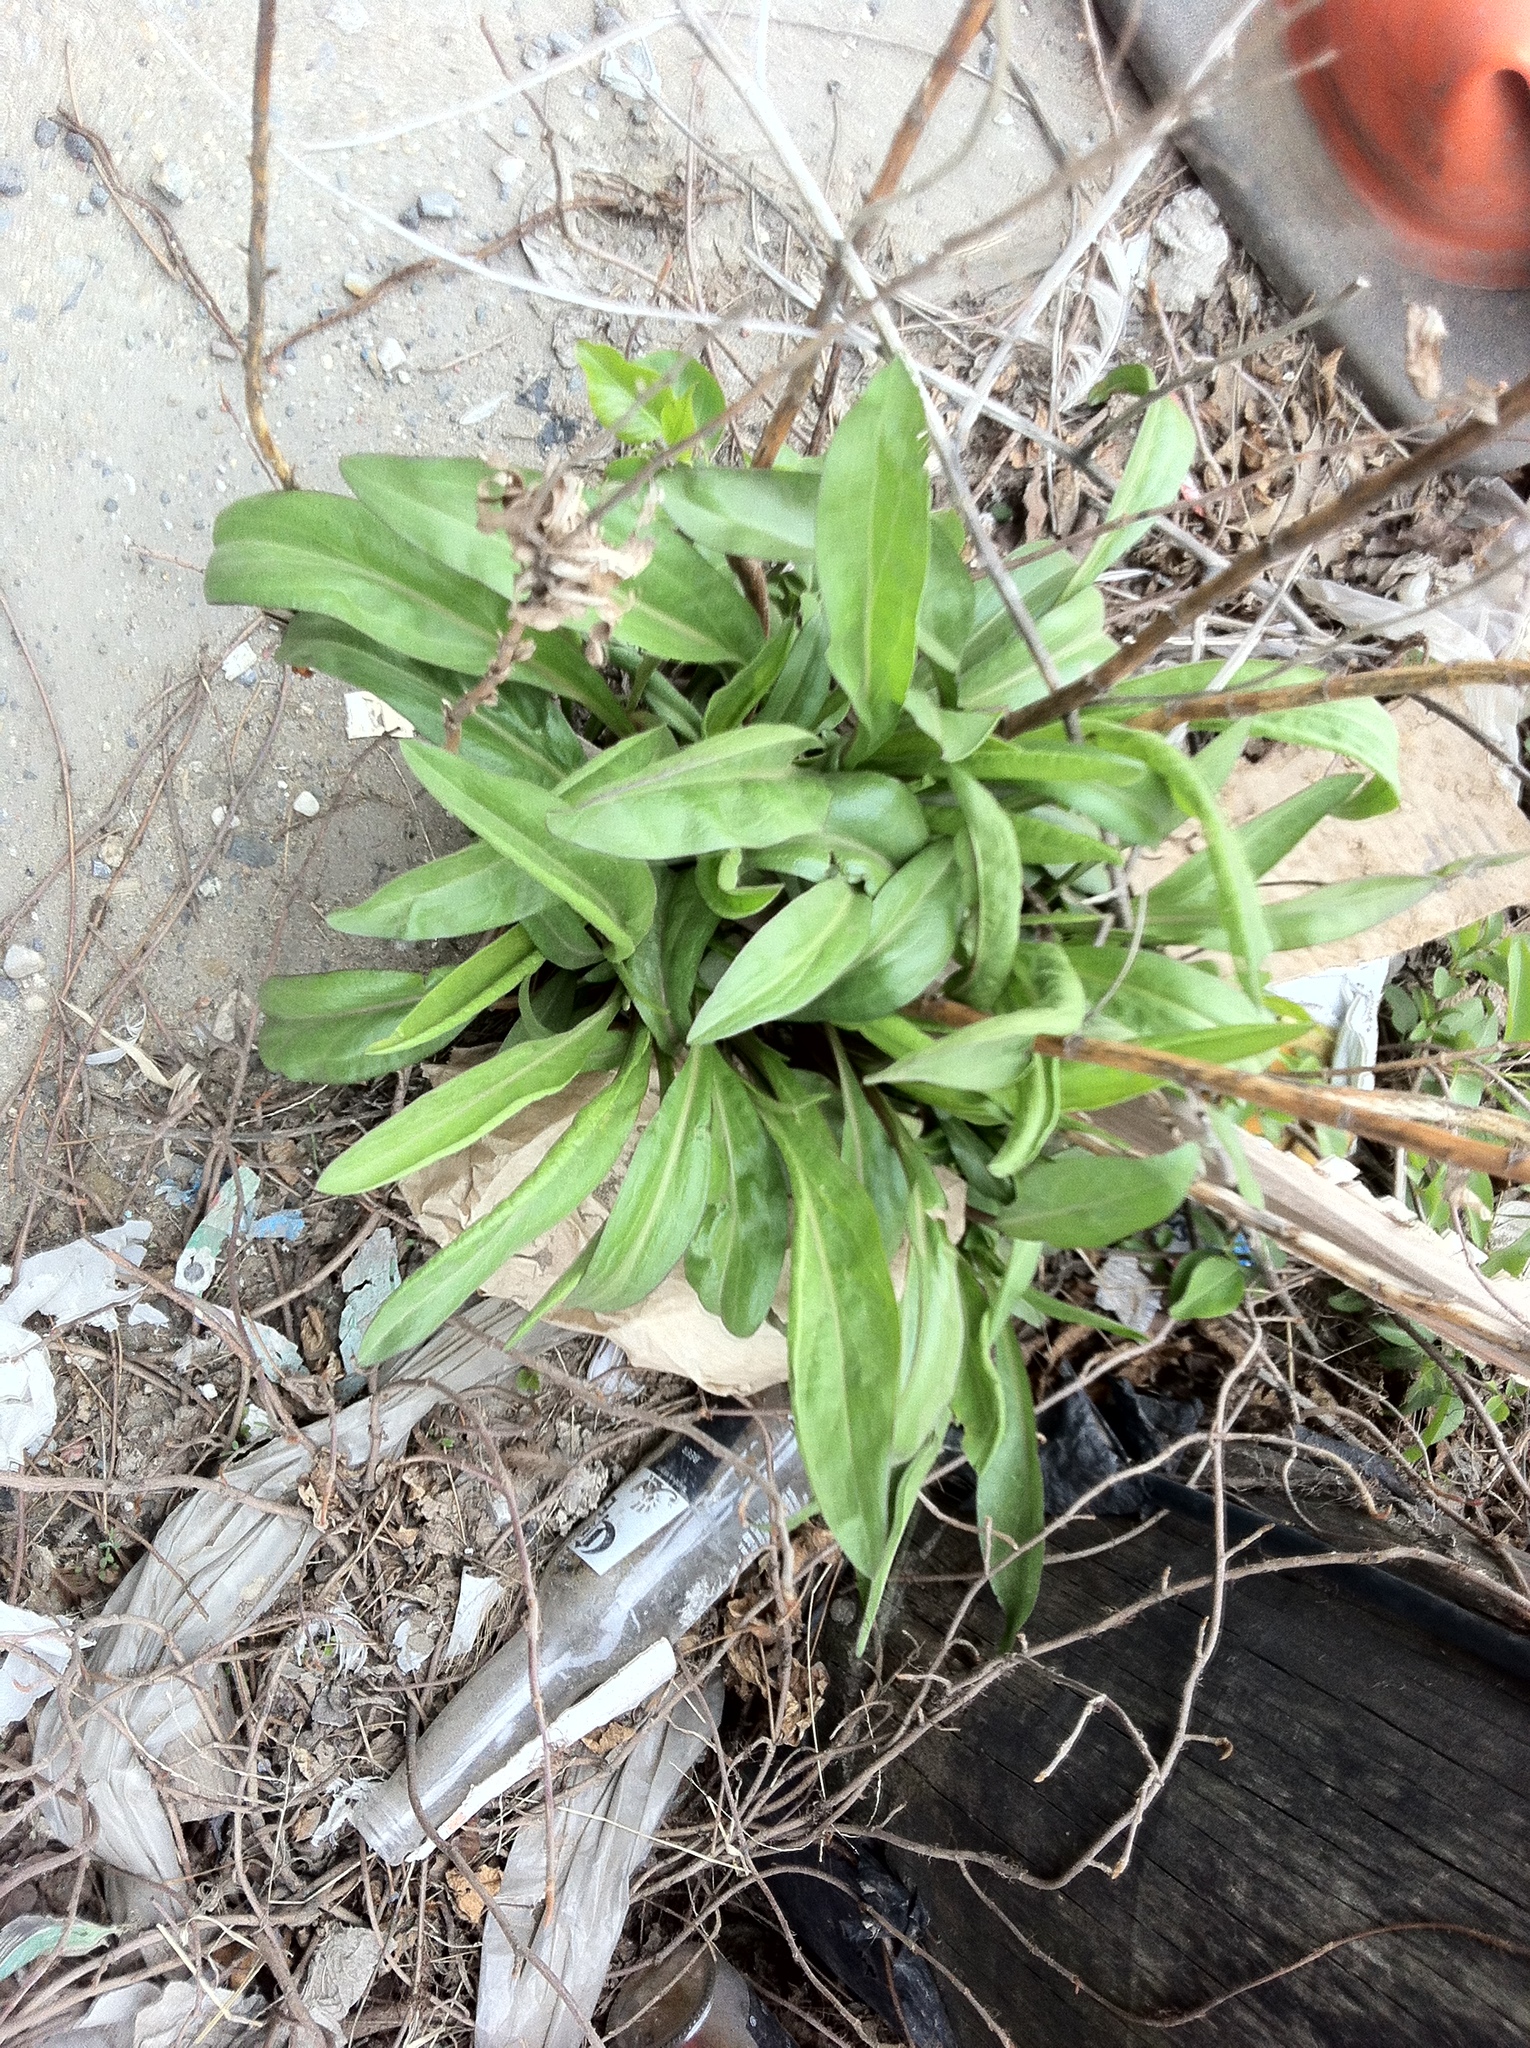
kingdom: Plantae
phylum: Tracheophyta
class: Magnoliopsida
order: Asterales
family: Asteraceae
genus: Solidago
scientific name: Solidago sempervirens
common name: Salt-marsh goldenrod
